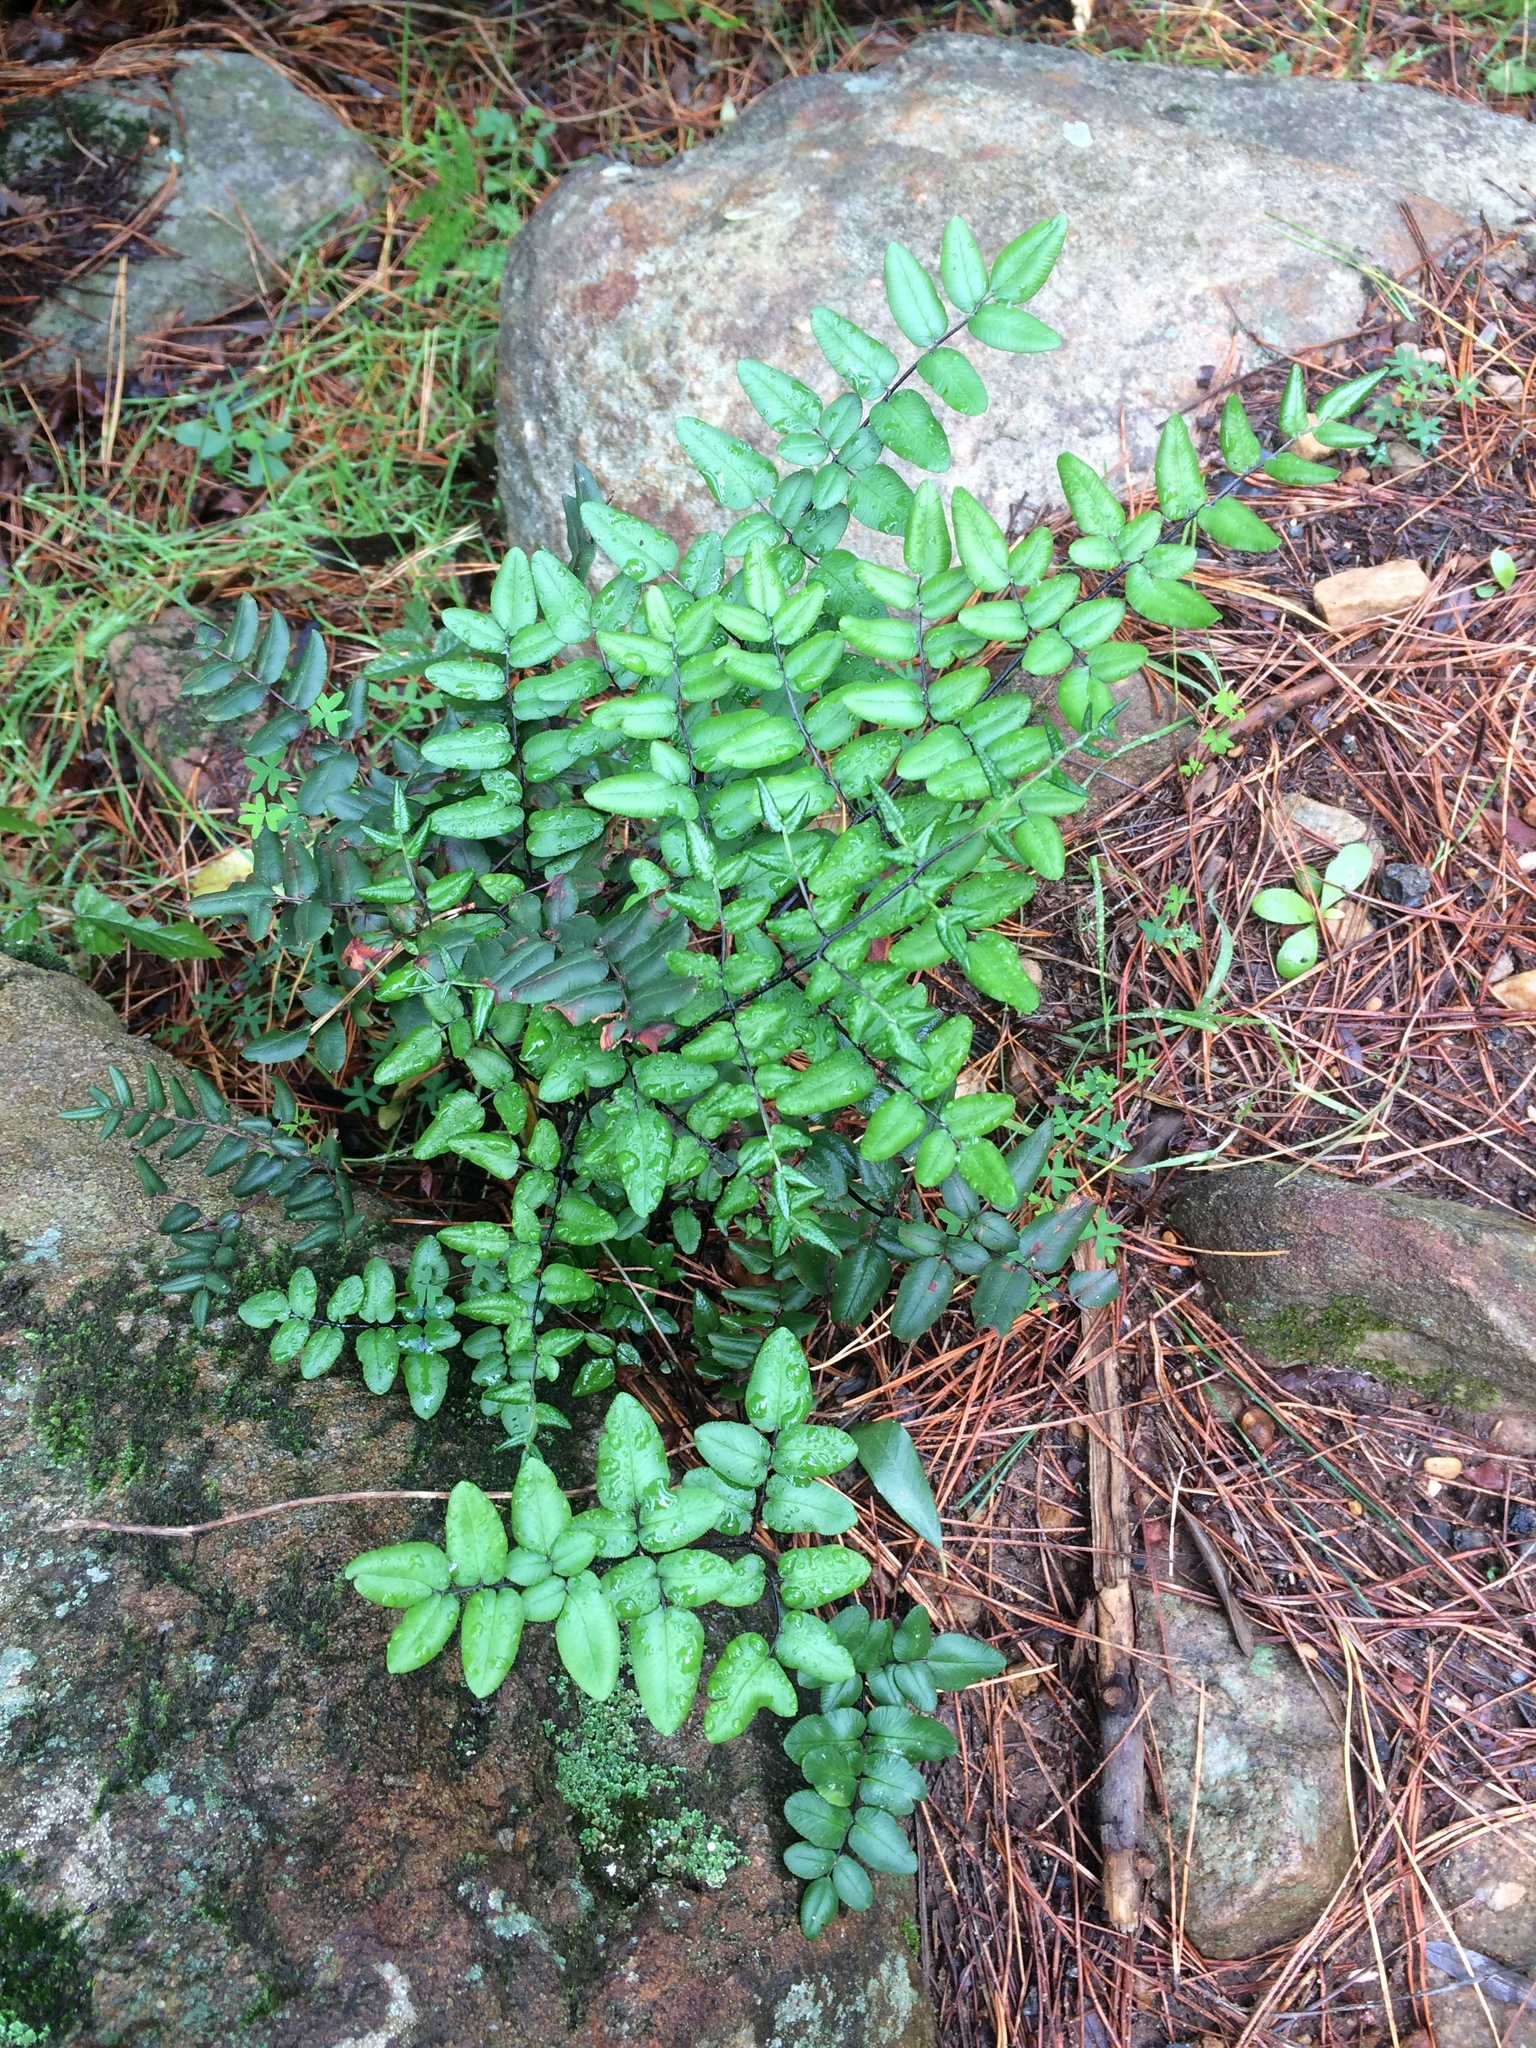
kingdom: Plantae
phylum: Tracheophyta
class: Polypodiopsida
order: Polypodiales
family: Pteridaceae
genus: Pellaea
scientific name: Pellaea pteroides
